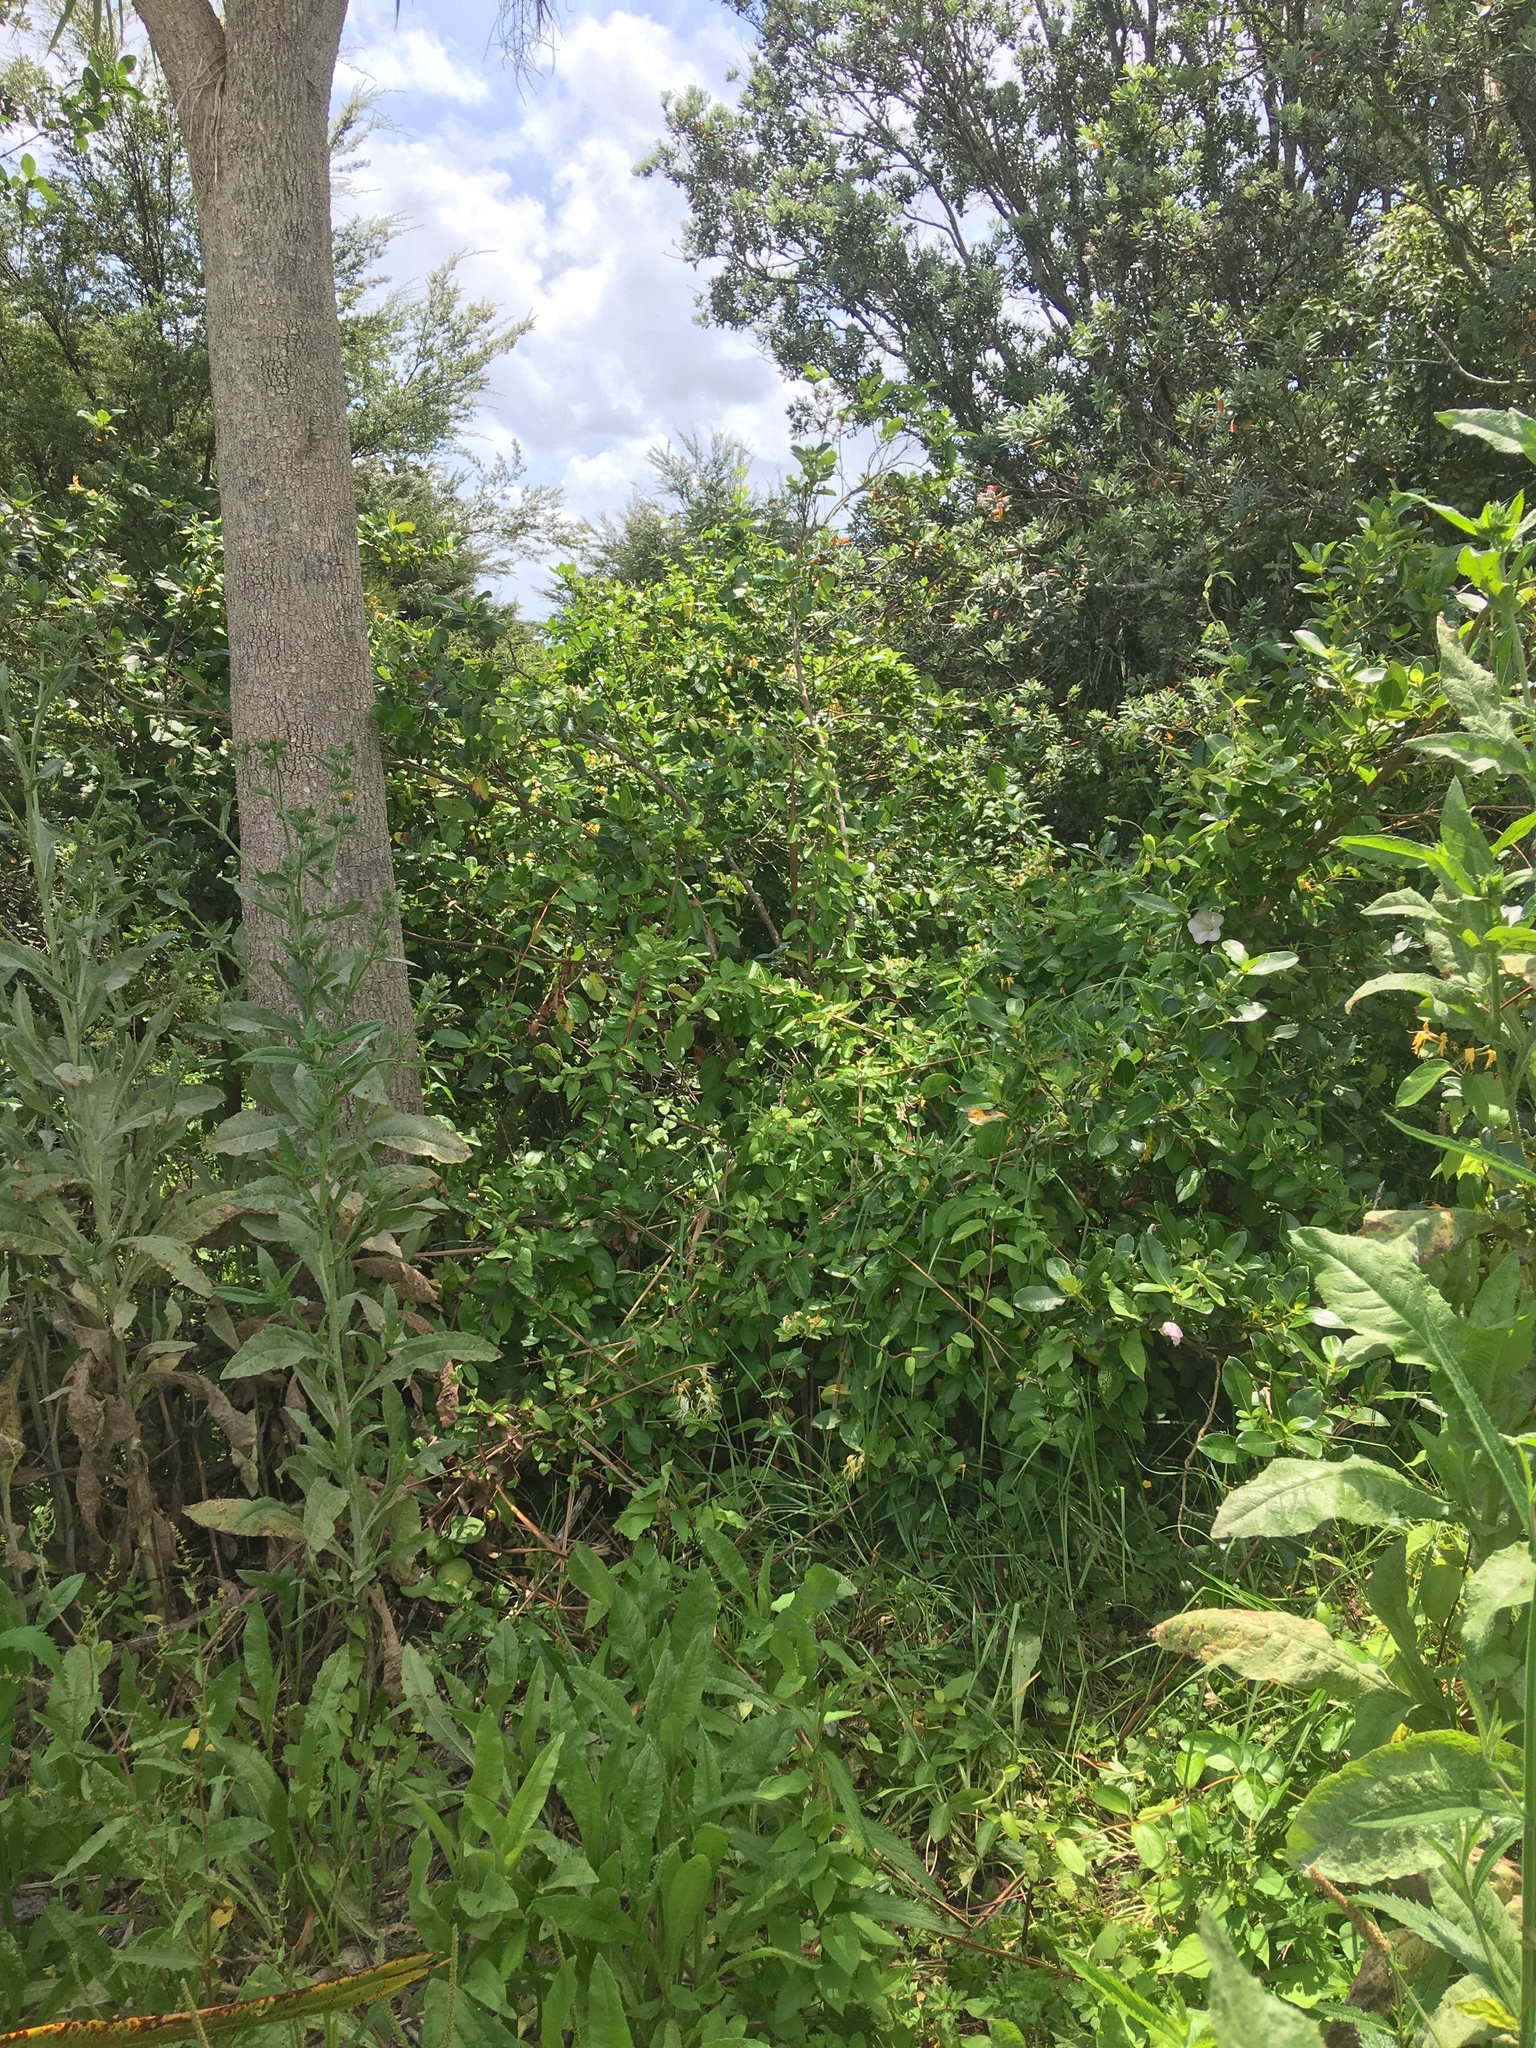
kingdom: Plantae
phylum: Tracheophyta
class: Liliopsida
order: Asparagales
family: Asparagaceae
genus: Cordyline
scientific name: Cordyline australis
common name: Cabbage-palm
